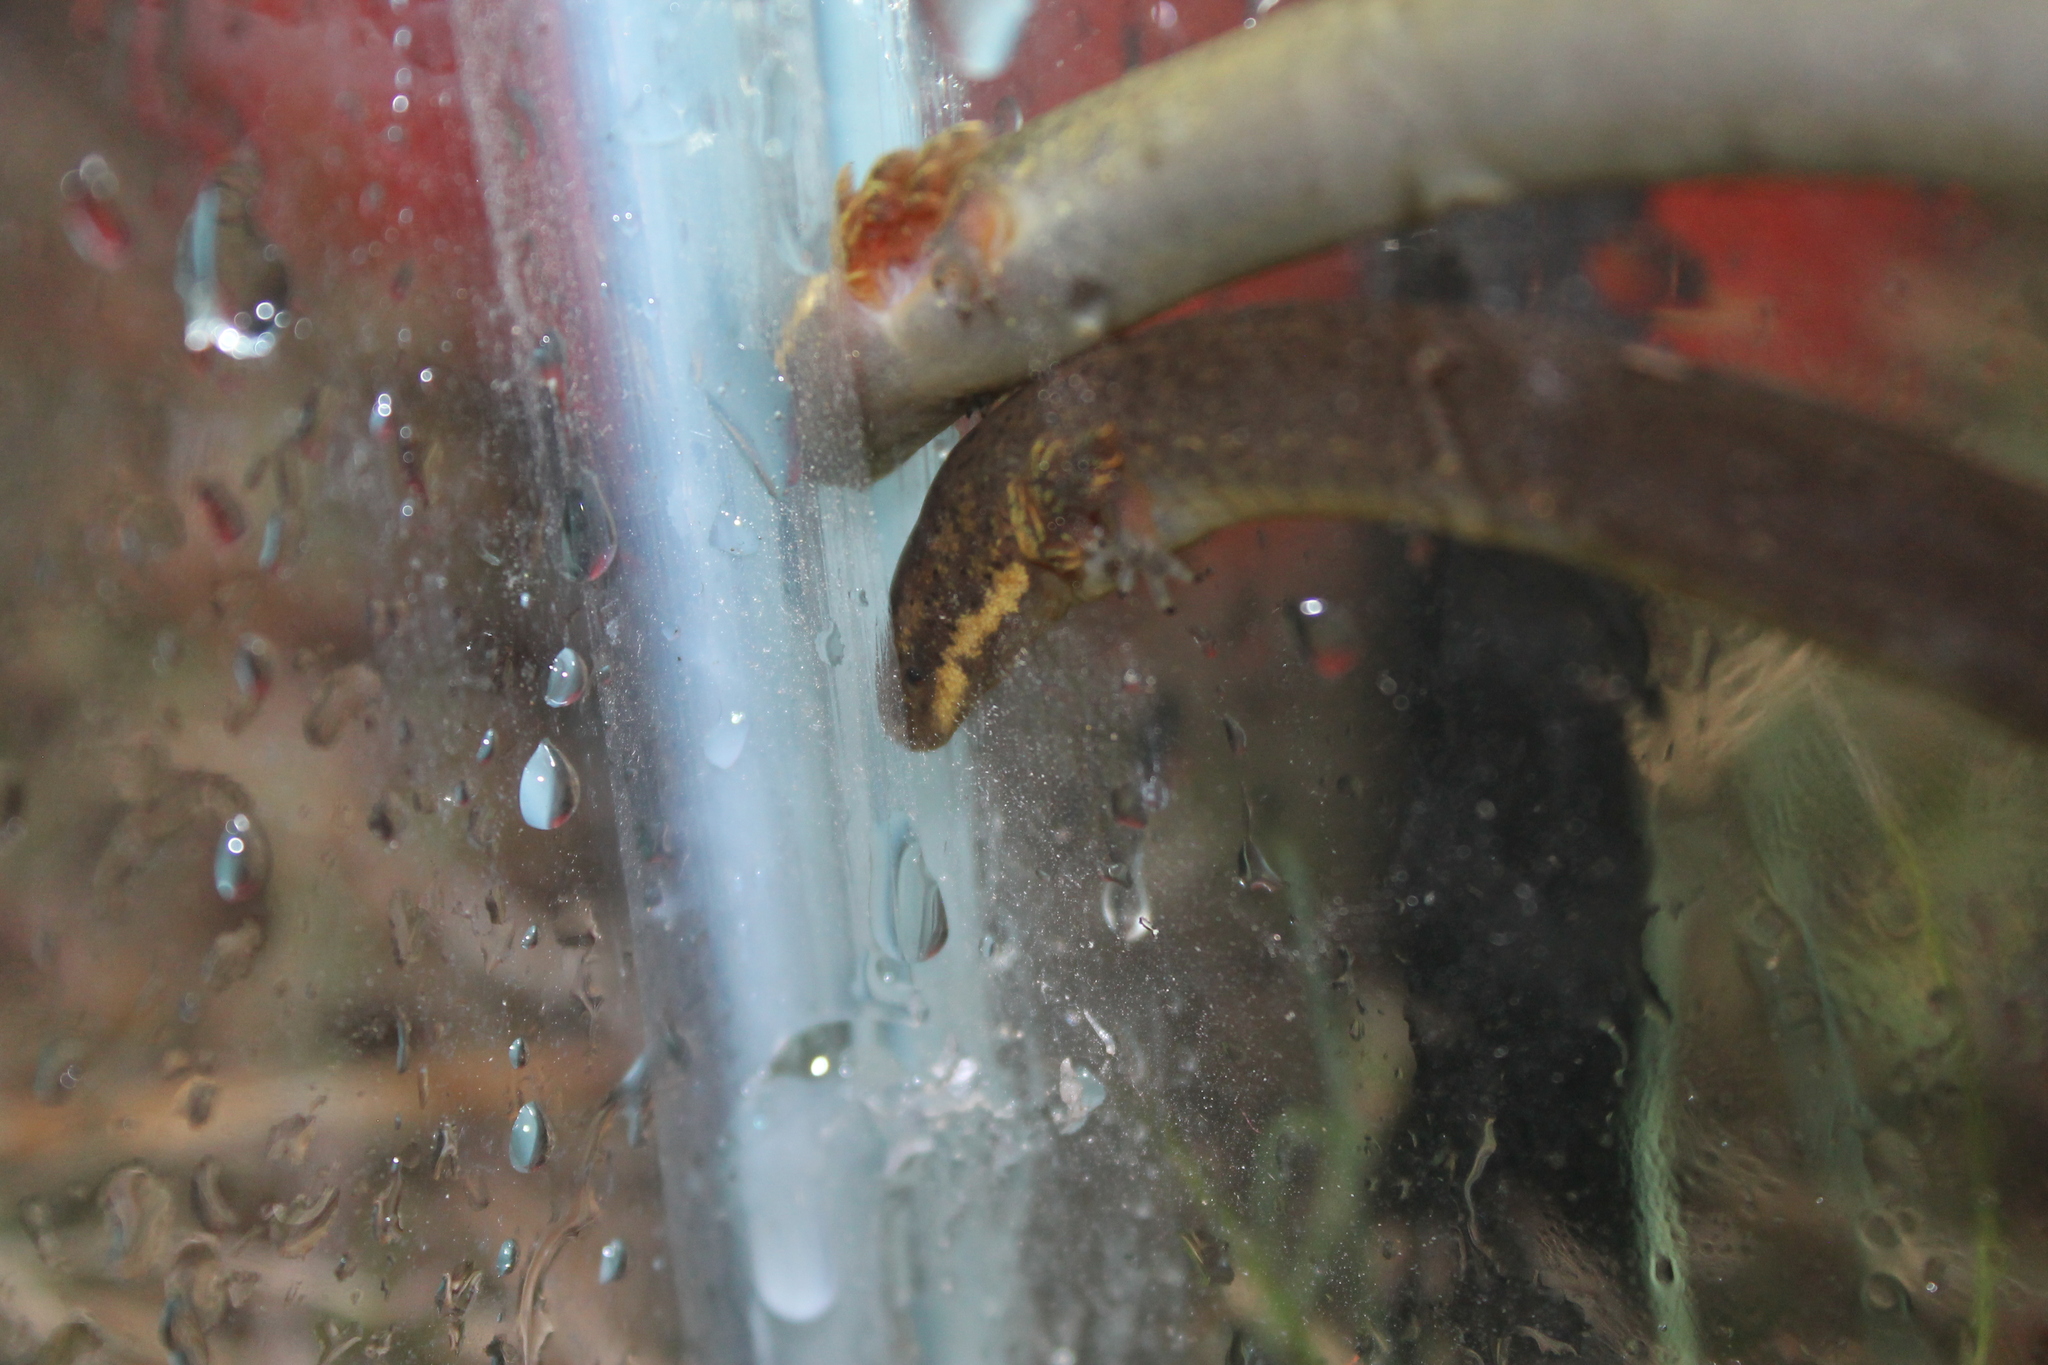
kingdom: Animalia
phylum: Chordata
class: Amphibia
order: Caudata
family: Sirenidae
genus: Siren
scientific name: Siren intermedia
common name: Lesser siren
